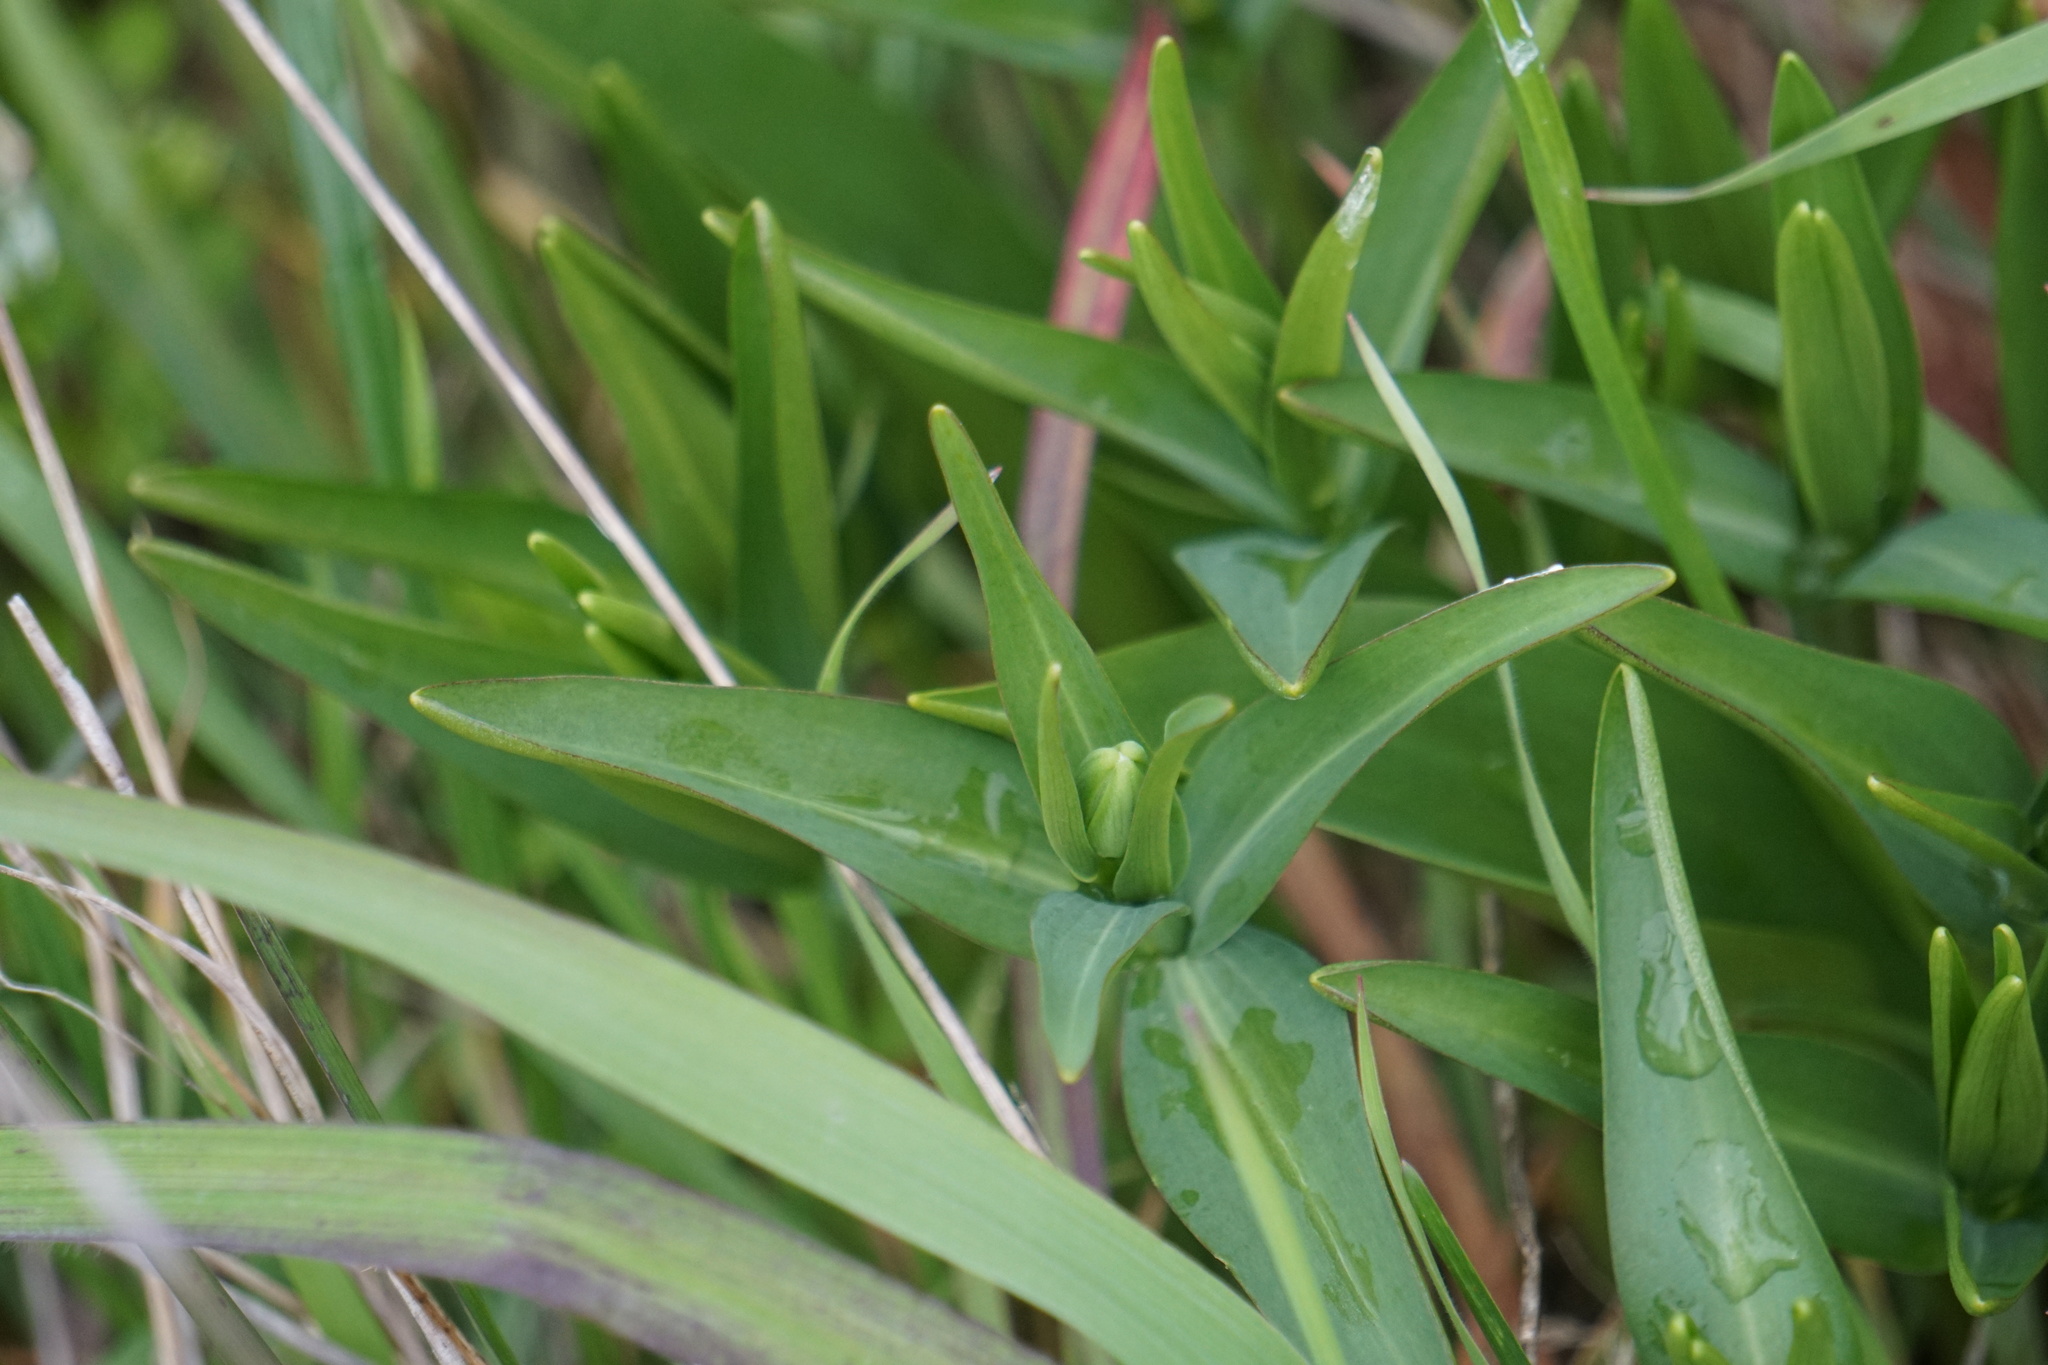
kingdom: Plantae
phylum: Tracheophyta
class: Liliopsida
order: Liliales
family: Liliaceae
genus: Fritillaria
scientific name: Fritillaria affinis
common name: Ojai fritillary
